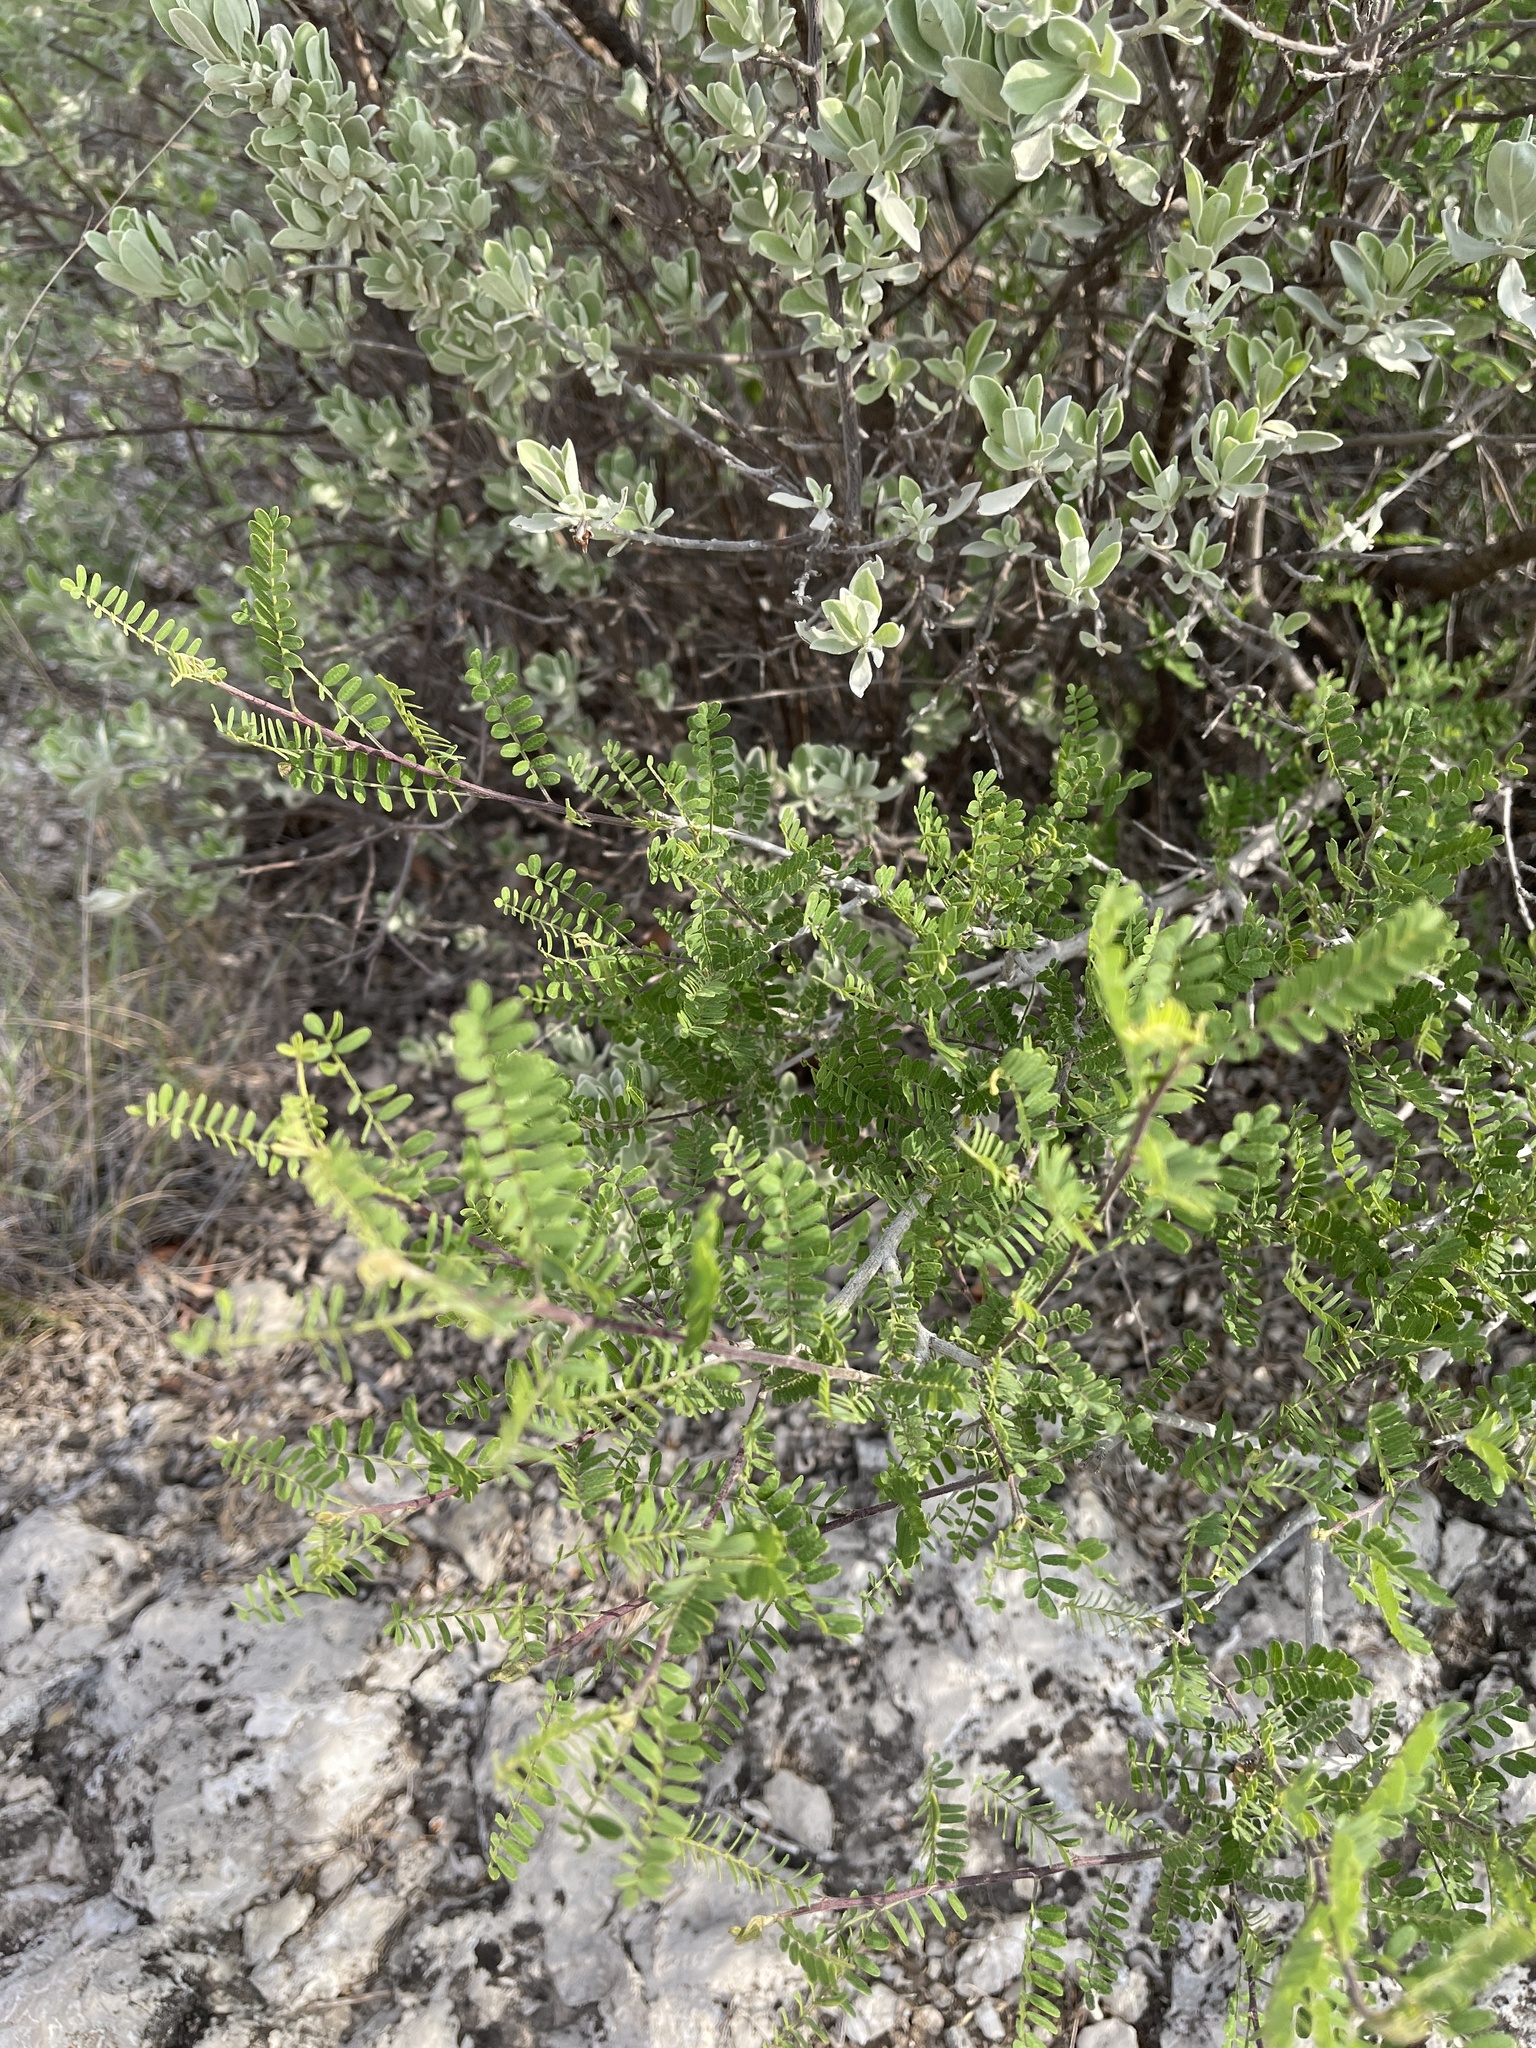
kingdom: Plantae
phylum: Tracheophyta
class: Magnoliopsida
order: Fabales
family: Fabaceae
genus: Eysenhardtia
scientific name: Eysenhardtia texana
